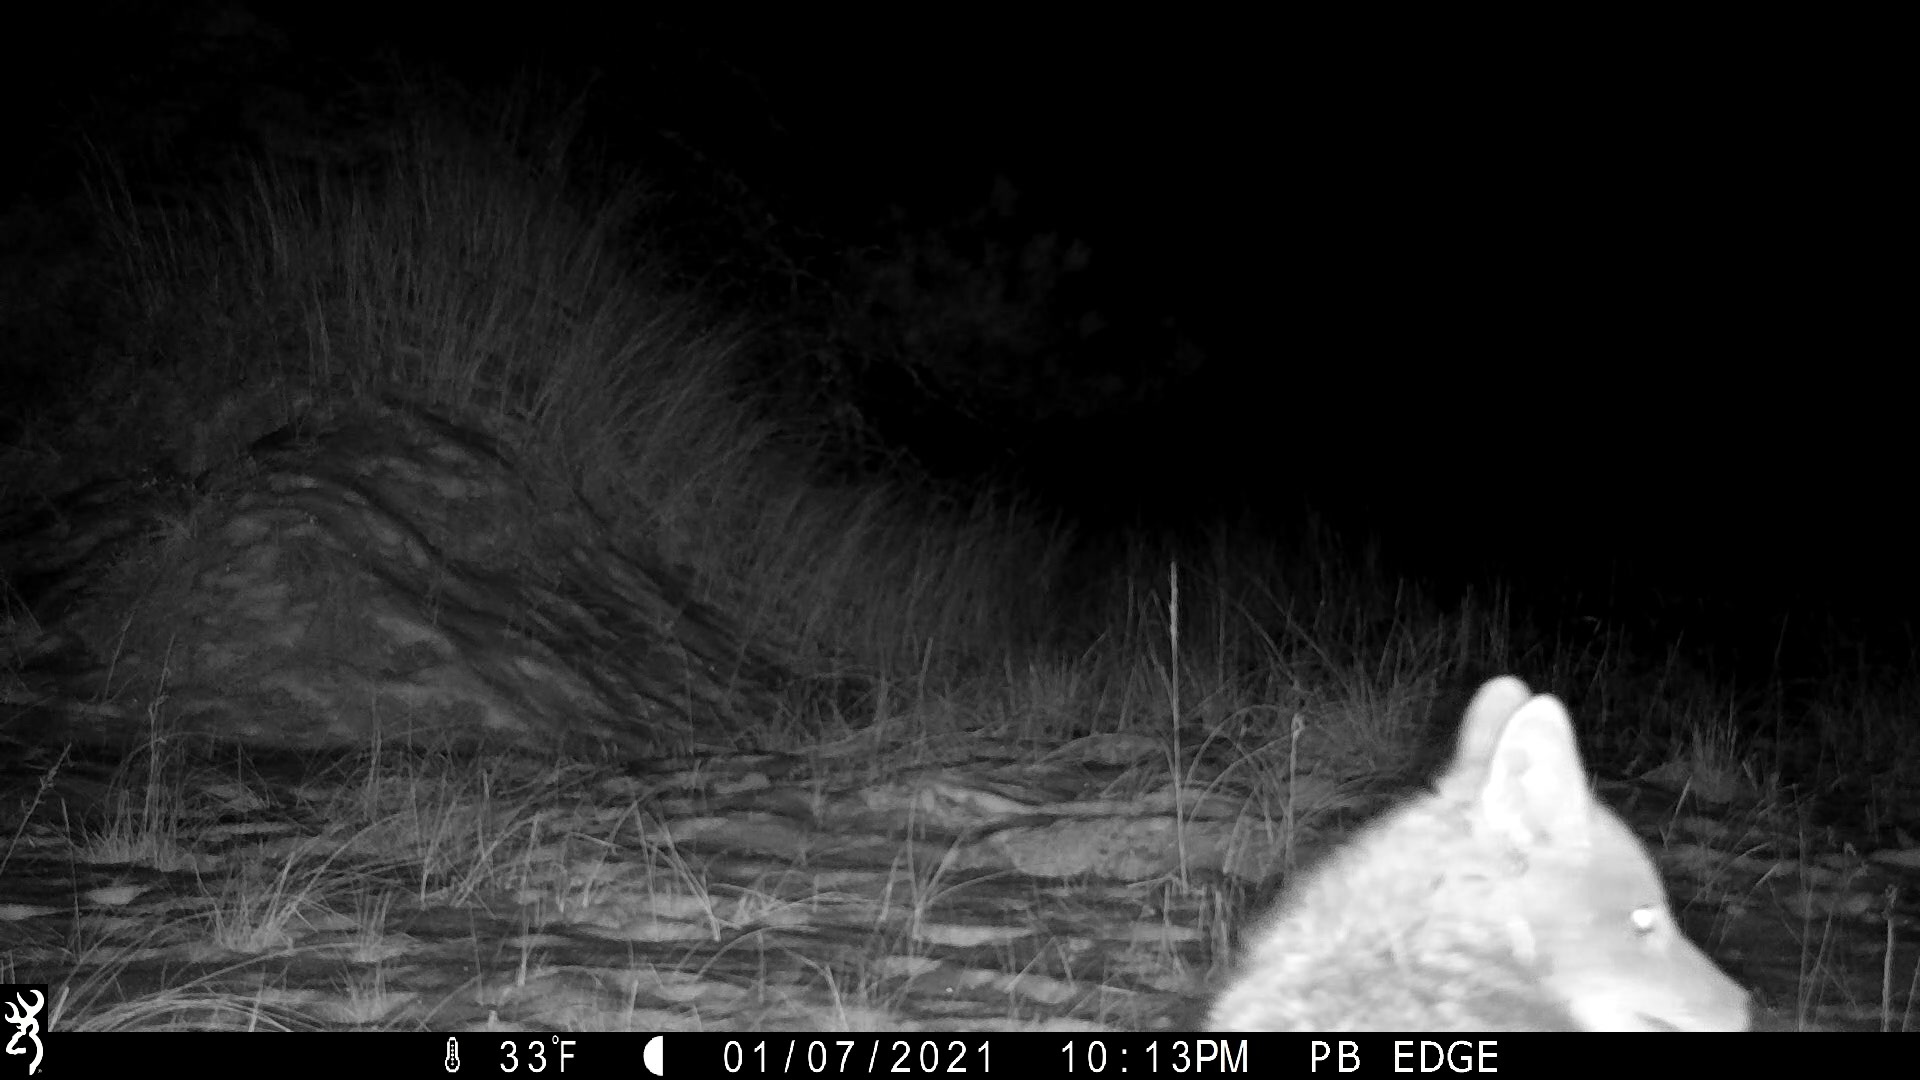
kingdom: Animalia
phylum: Chordata
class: Mammalia
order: Carnivora
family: Canidae
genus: Canis
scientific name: Canis latrans
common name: Coyote
